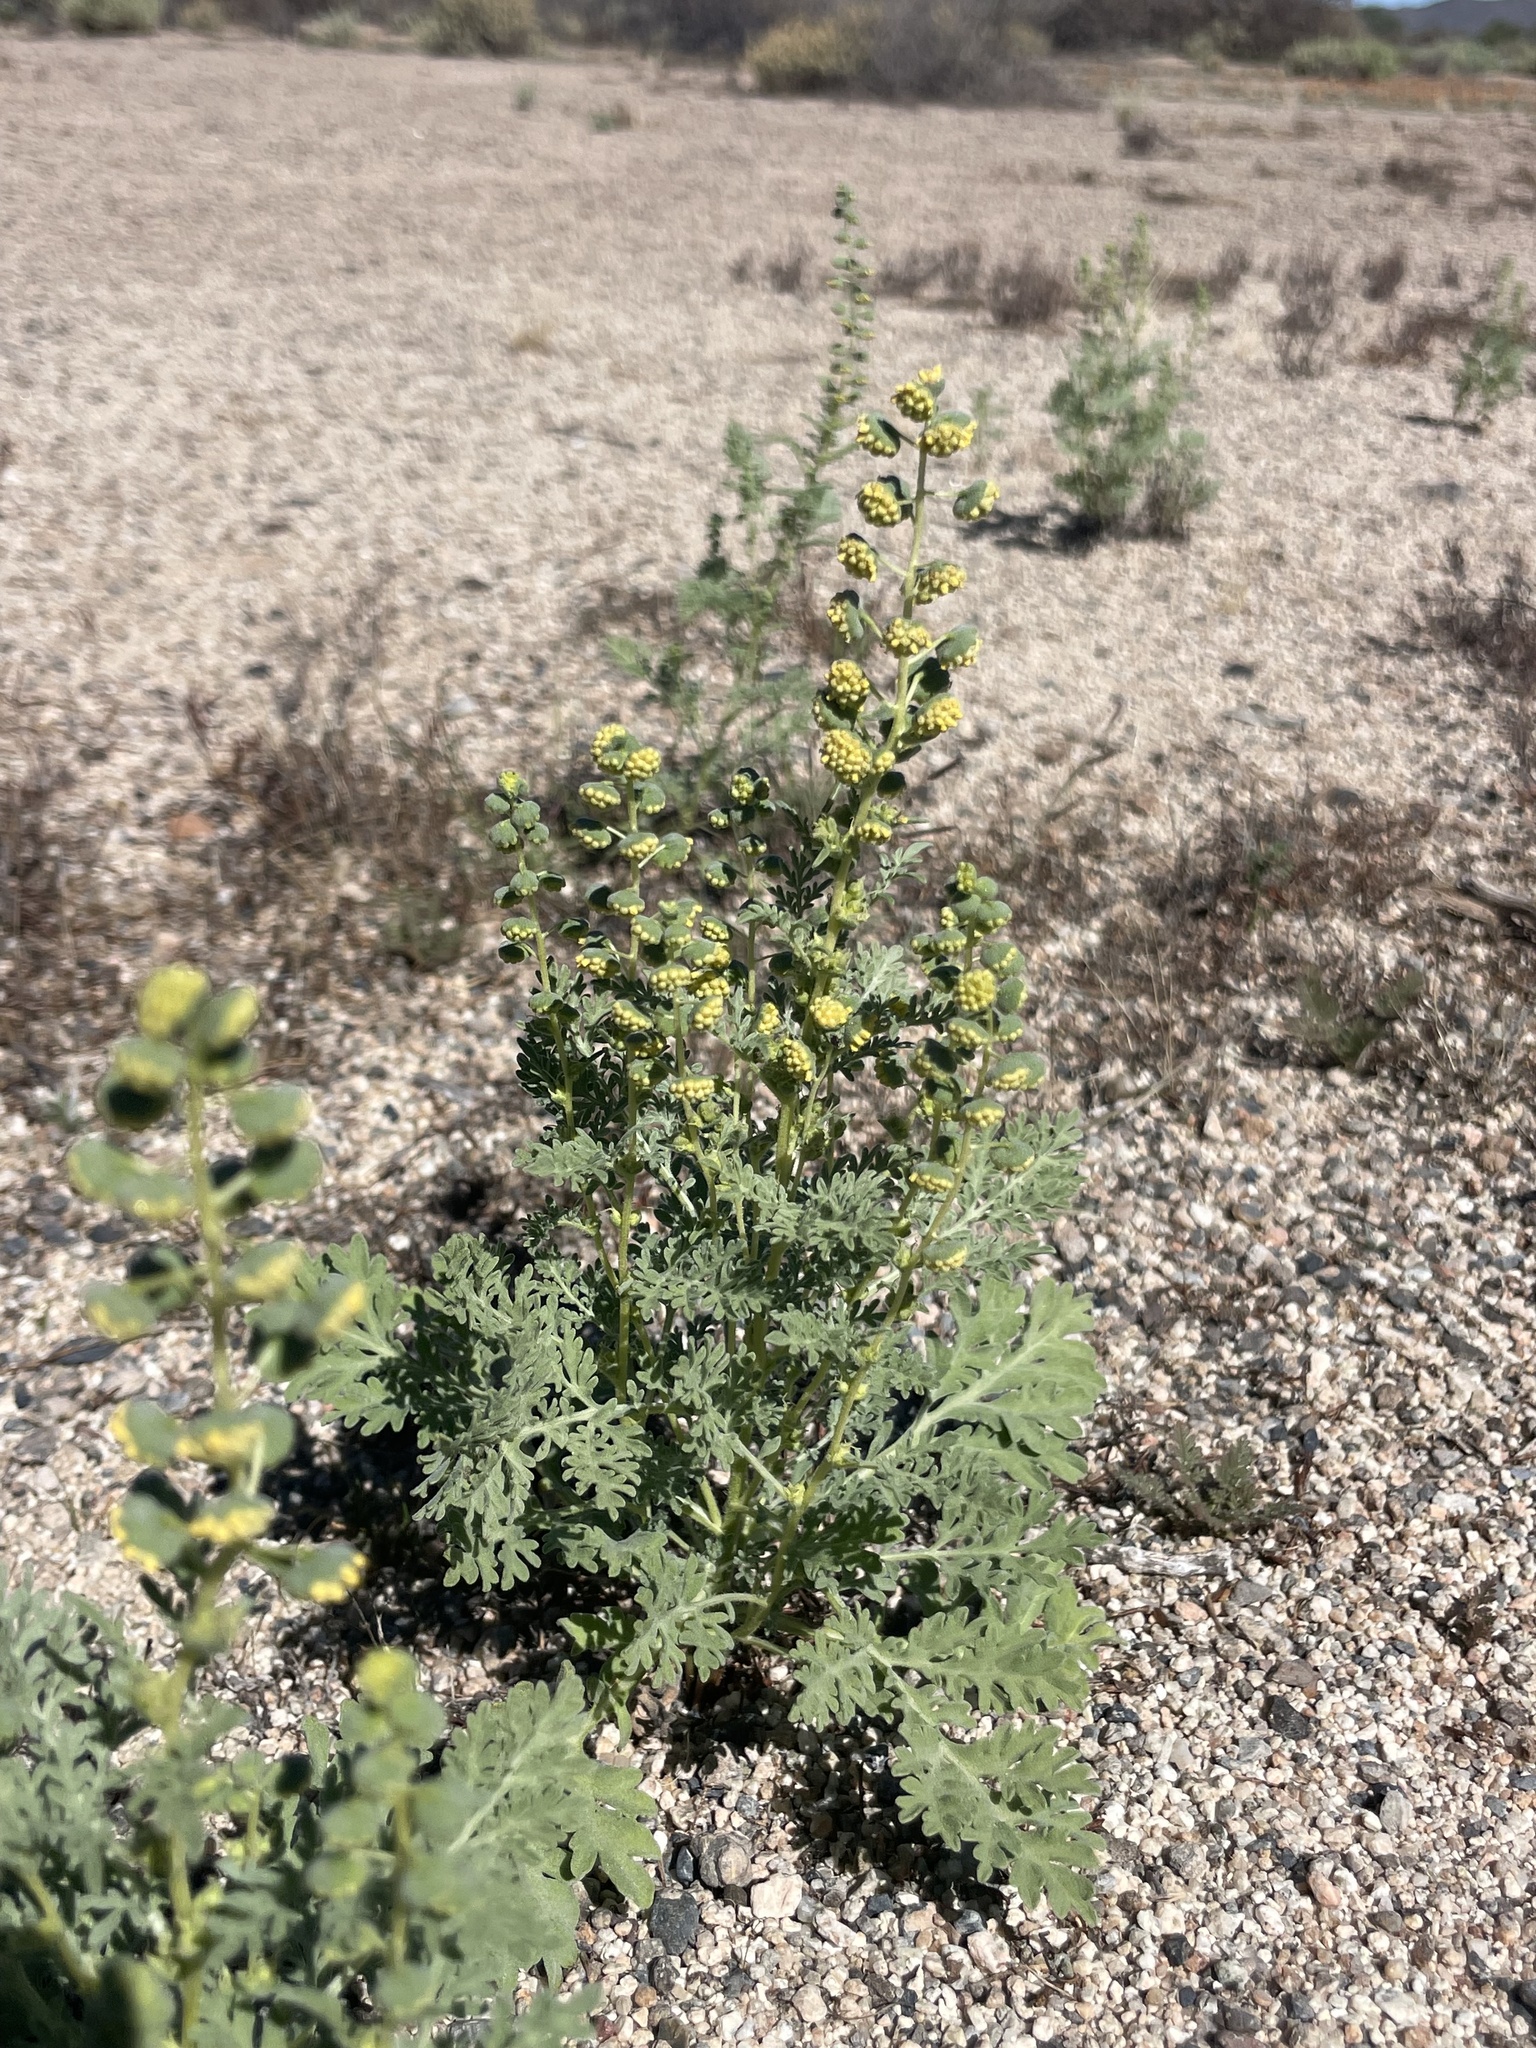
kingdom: Plantae
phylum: Tracheophyta
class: Magnoliopsida
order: Asterales
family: Asteraceae
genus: Ambrosia
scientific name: Ambrosia pumila
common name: San diego ambrosia
